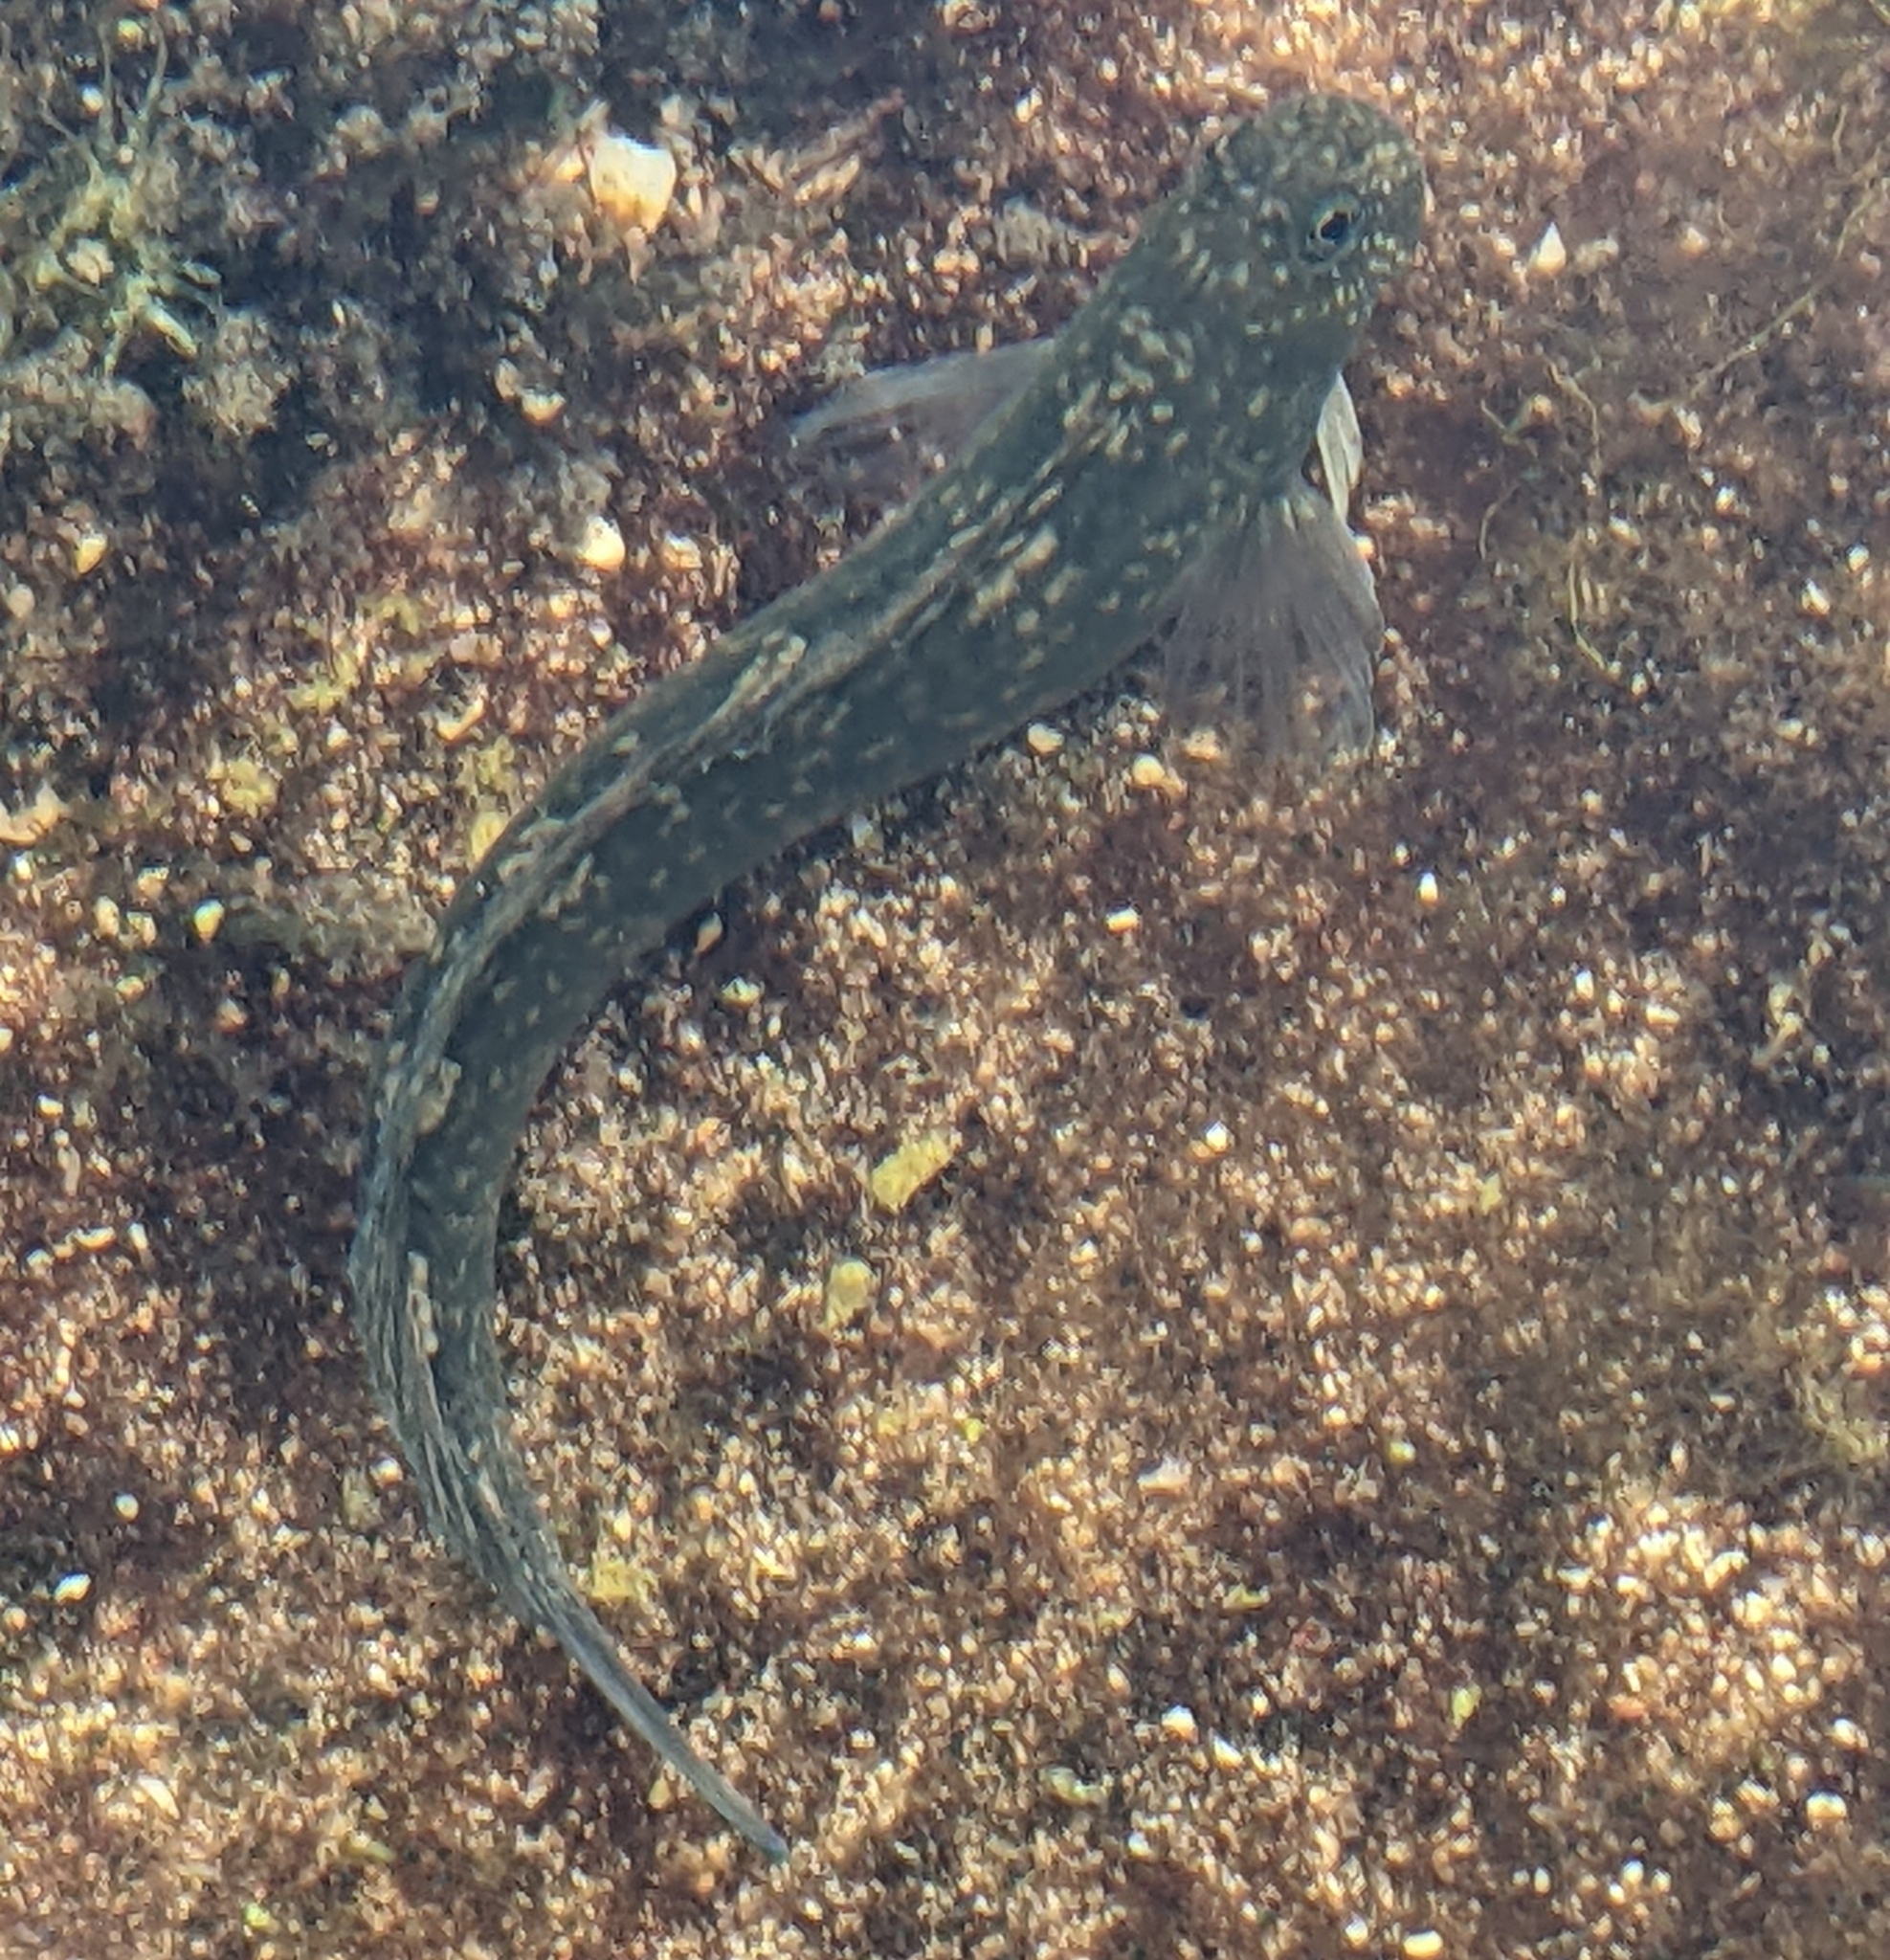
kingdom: Animalia
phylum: Chordata
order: Perciformes
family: Blenniidae
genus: Istiblennius
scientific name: Istiblennius zebra
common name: Zebra blenny
